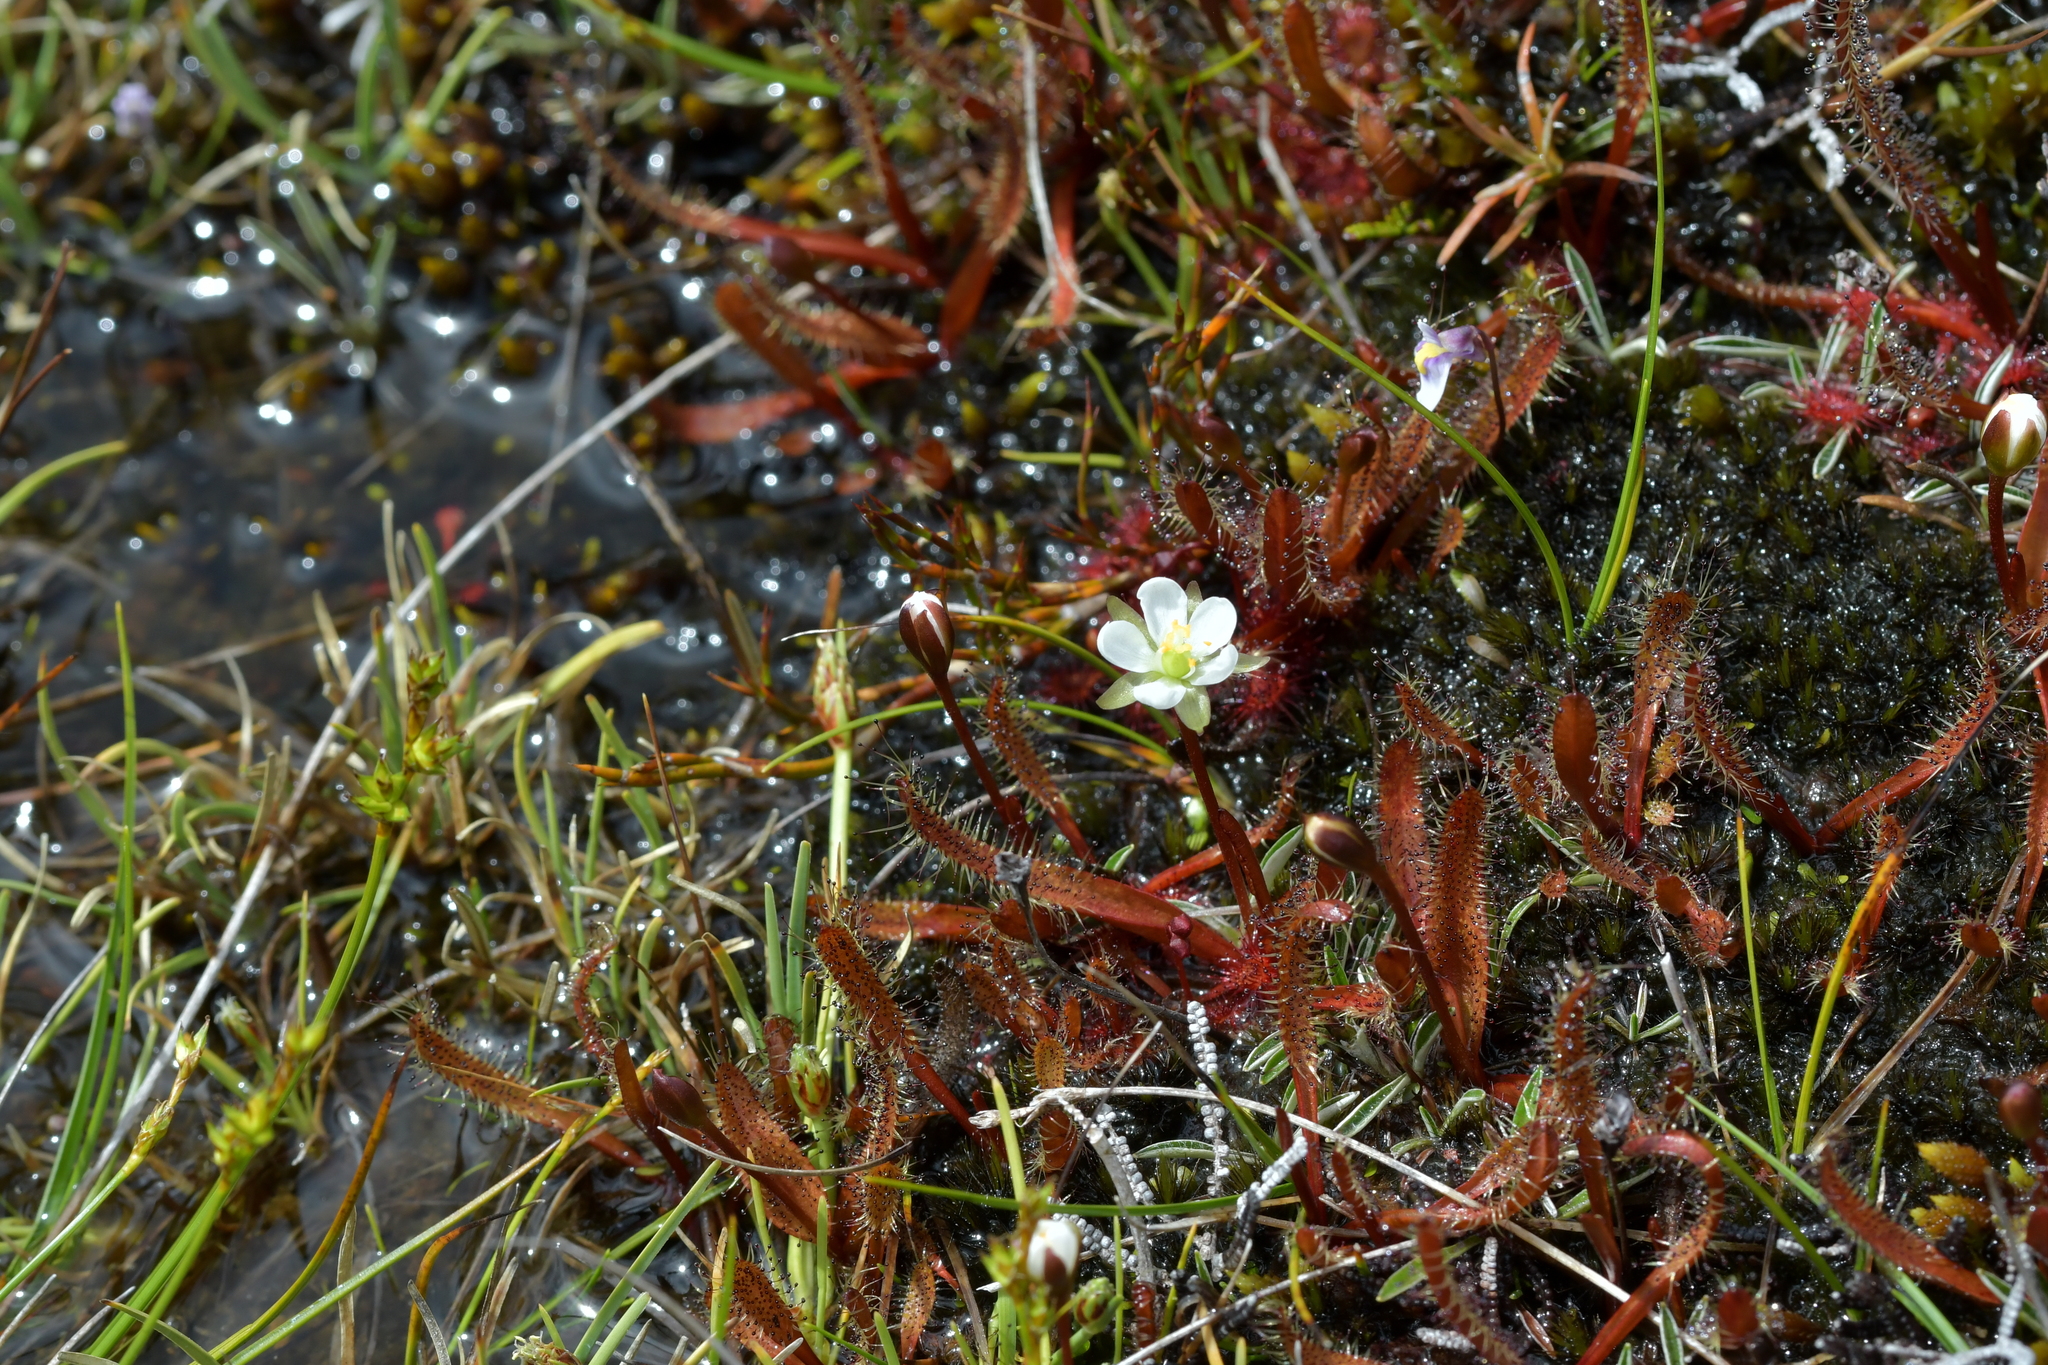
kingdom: Plantae
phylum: Tracheophyta
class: Magnoliopsida
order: Caryophyllales
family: Droseraceae
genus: Drosera
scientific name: Drosera arcturi
